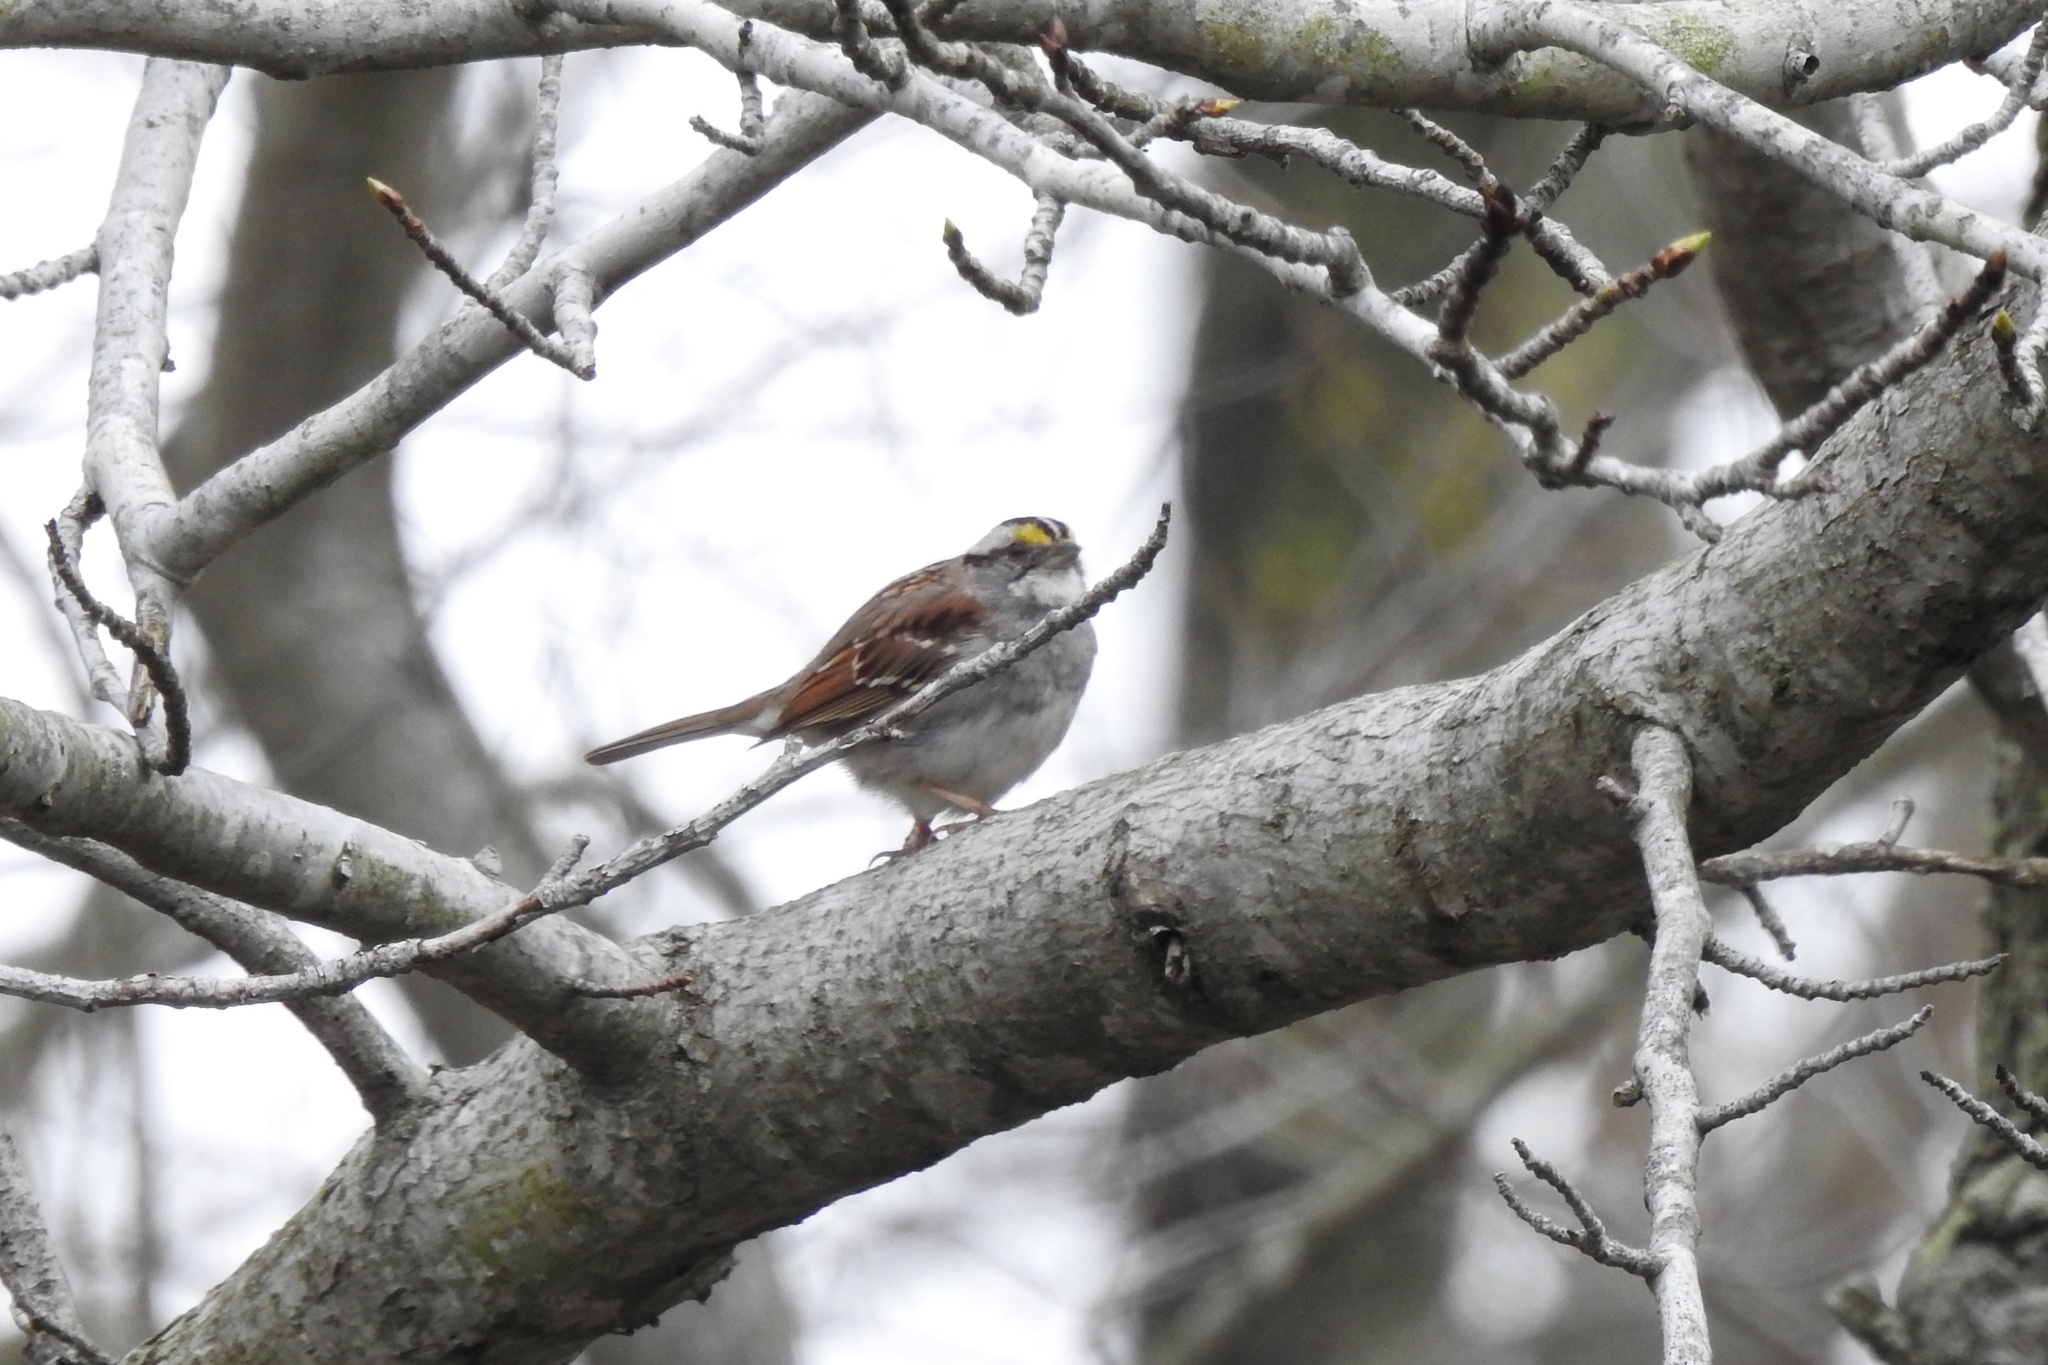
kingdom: Animalia
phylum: Chordata
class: Aves
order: Passeriformes
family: Passerellidae
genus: Zonotrichia
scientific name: Zonotrichia albicollis
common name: White-throated sparrow
